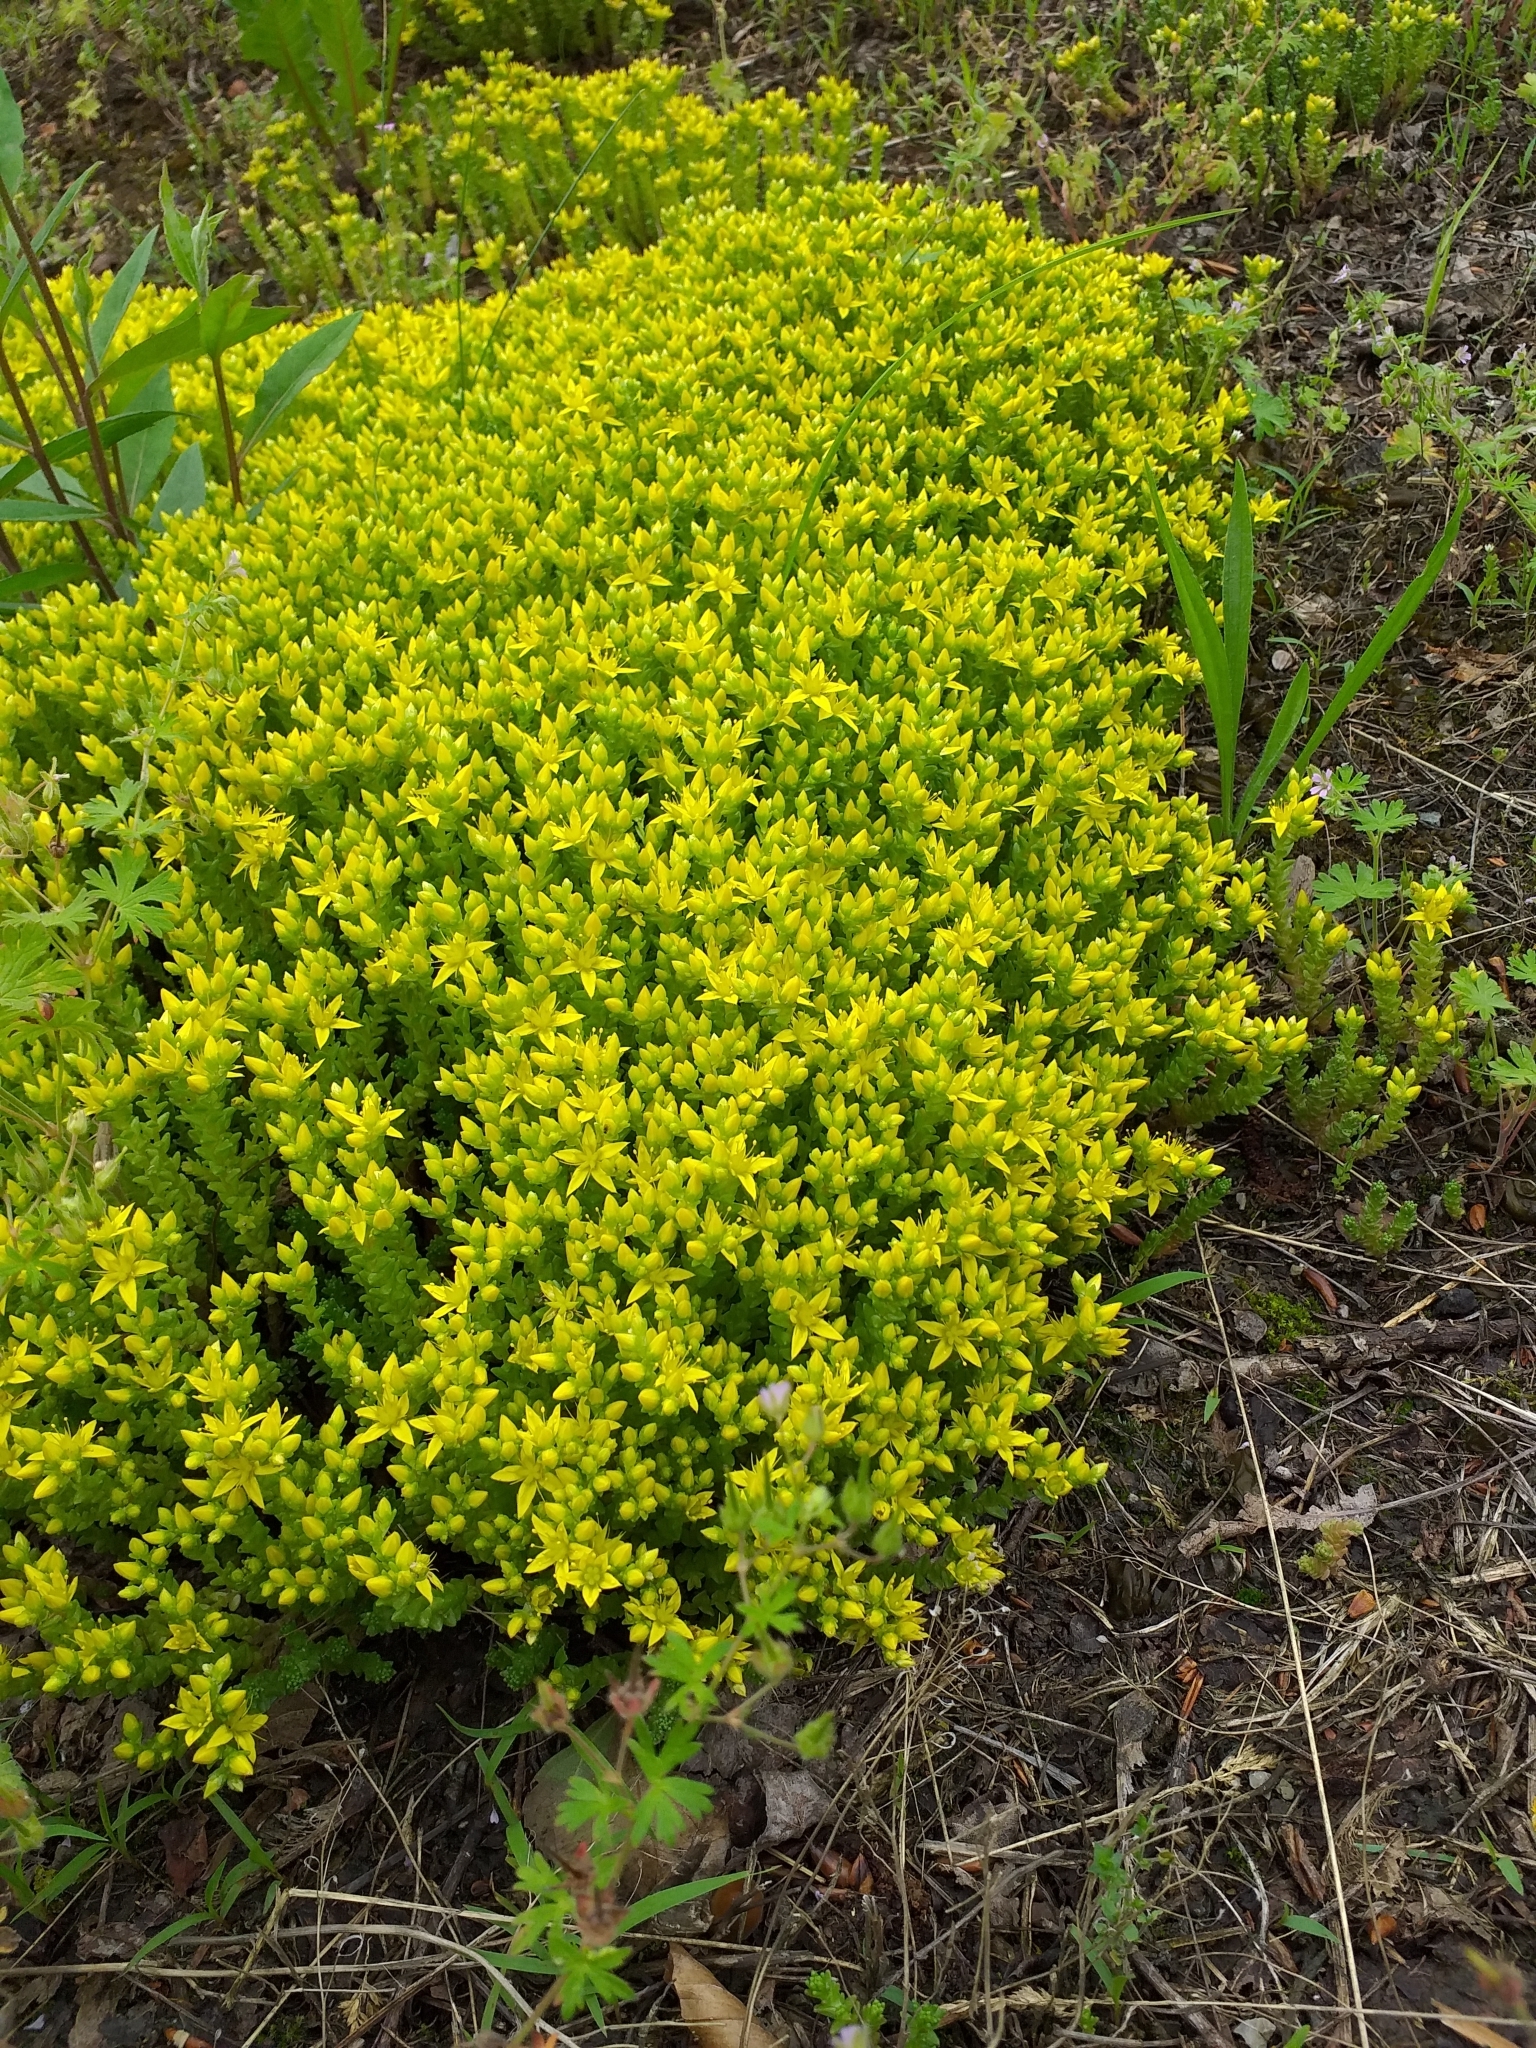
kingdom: Plantae
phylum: Tracheophyta
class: Magnoliopsida
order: Saxifragales
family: Crassulaceae
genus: Sedum
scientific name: Sedum acre
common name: Biting stonecrop
